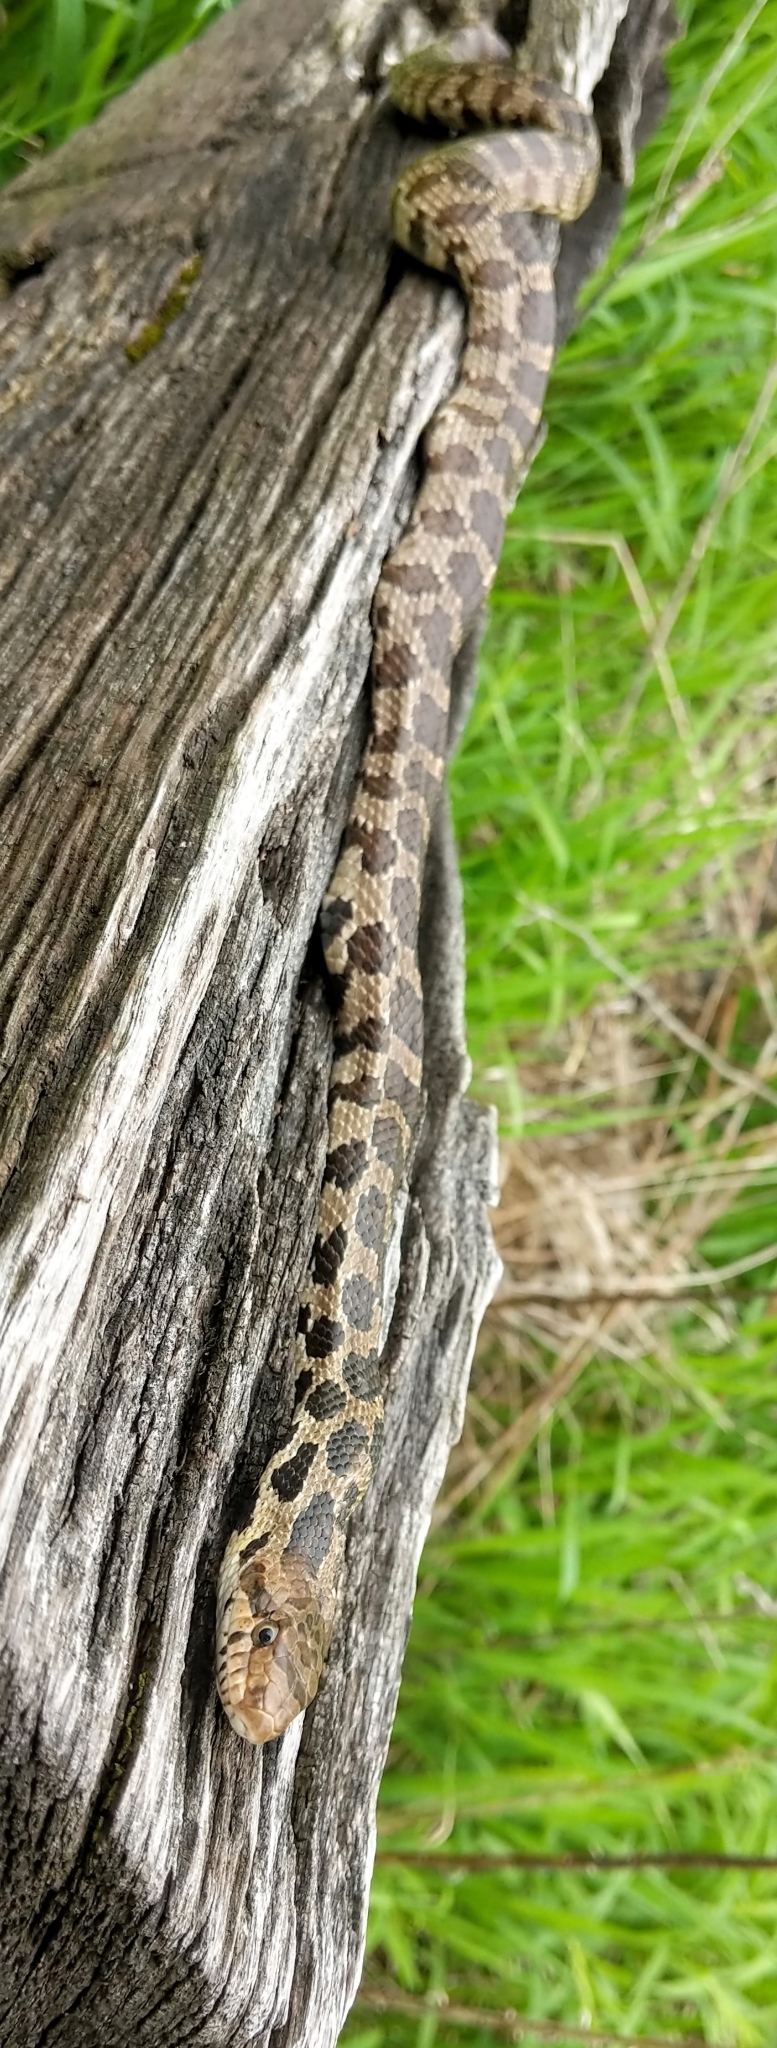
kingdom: Animalia
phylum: Chordata
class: Squamata
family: Colubridae
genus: Pantherophis
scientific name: Pantherophis vulpinus
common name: Eastern fox snake
